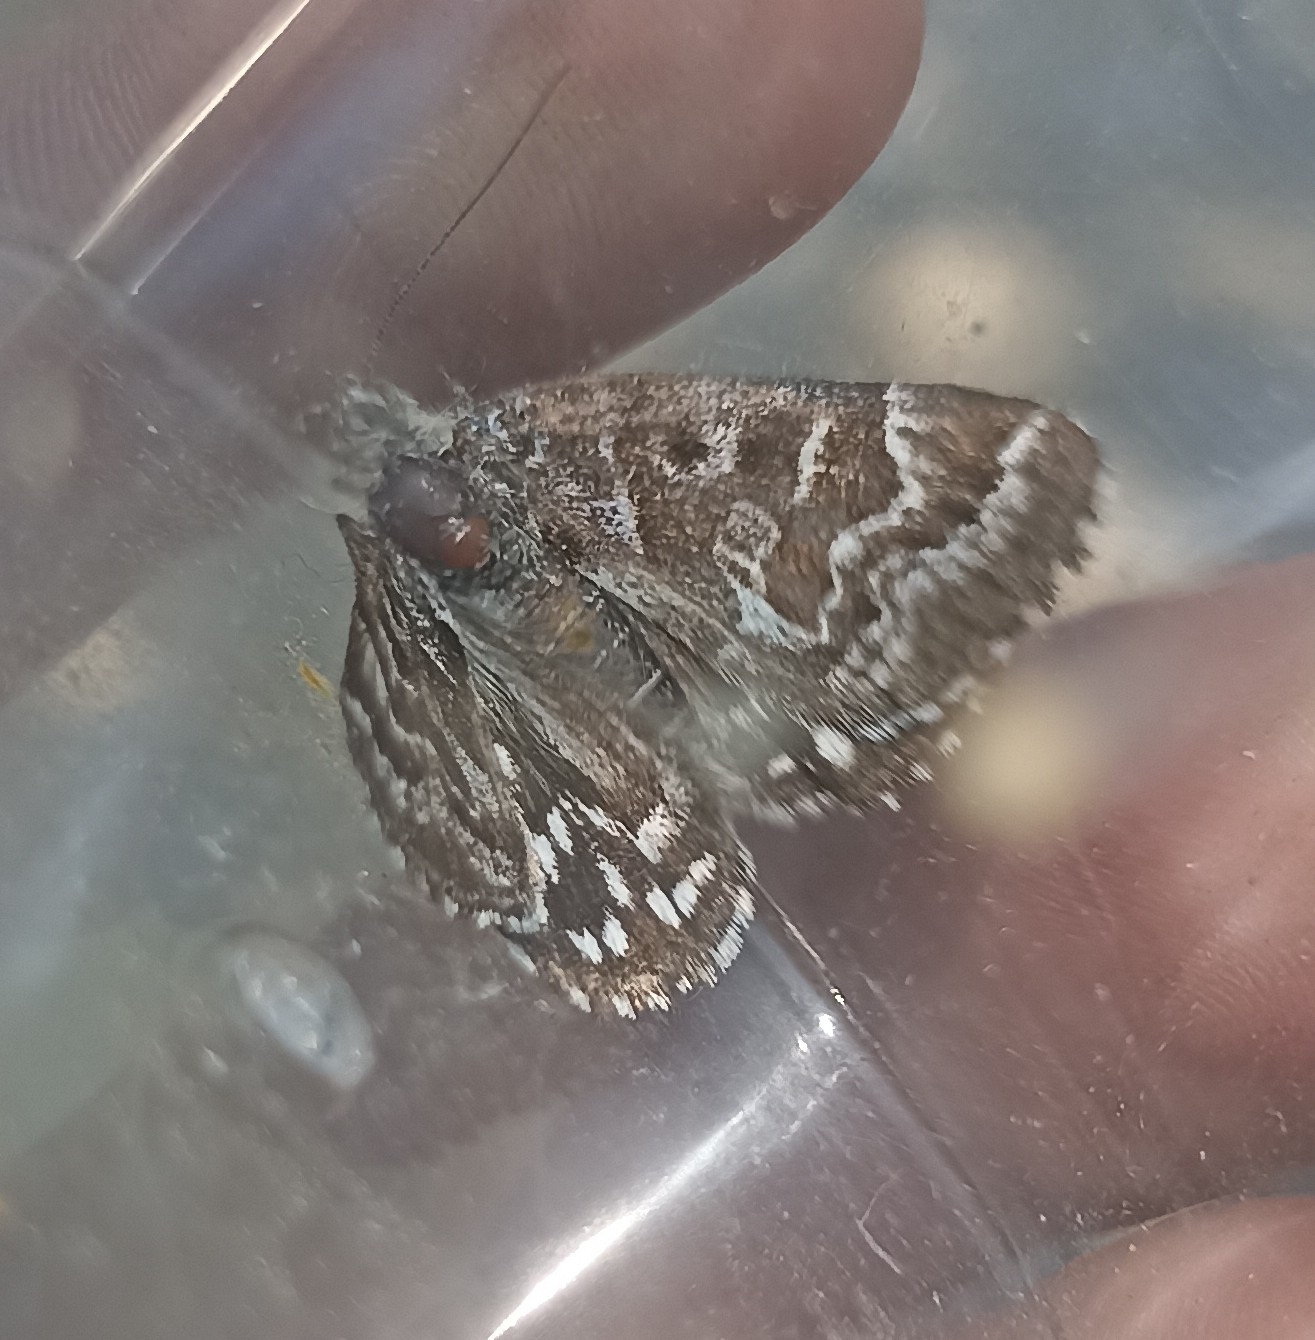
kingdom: Animalia
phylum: Arthropoda
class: Insecta
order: Lepidoptera
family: Erebidae
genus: Callistege
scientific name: Callistege mi
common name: Mother shipton
